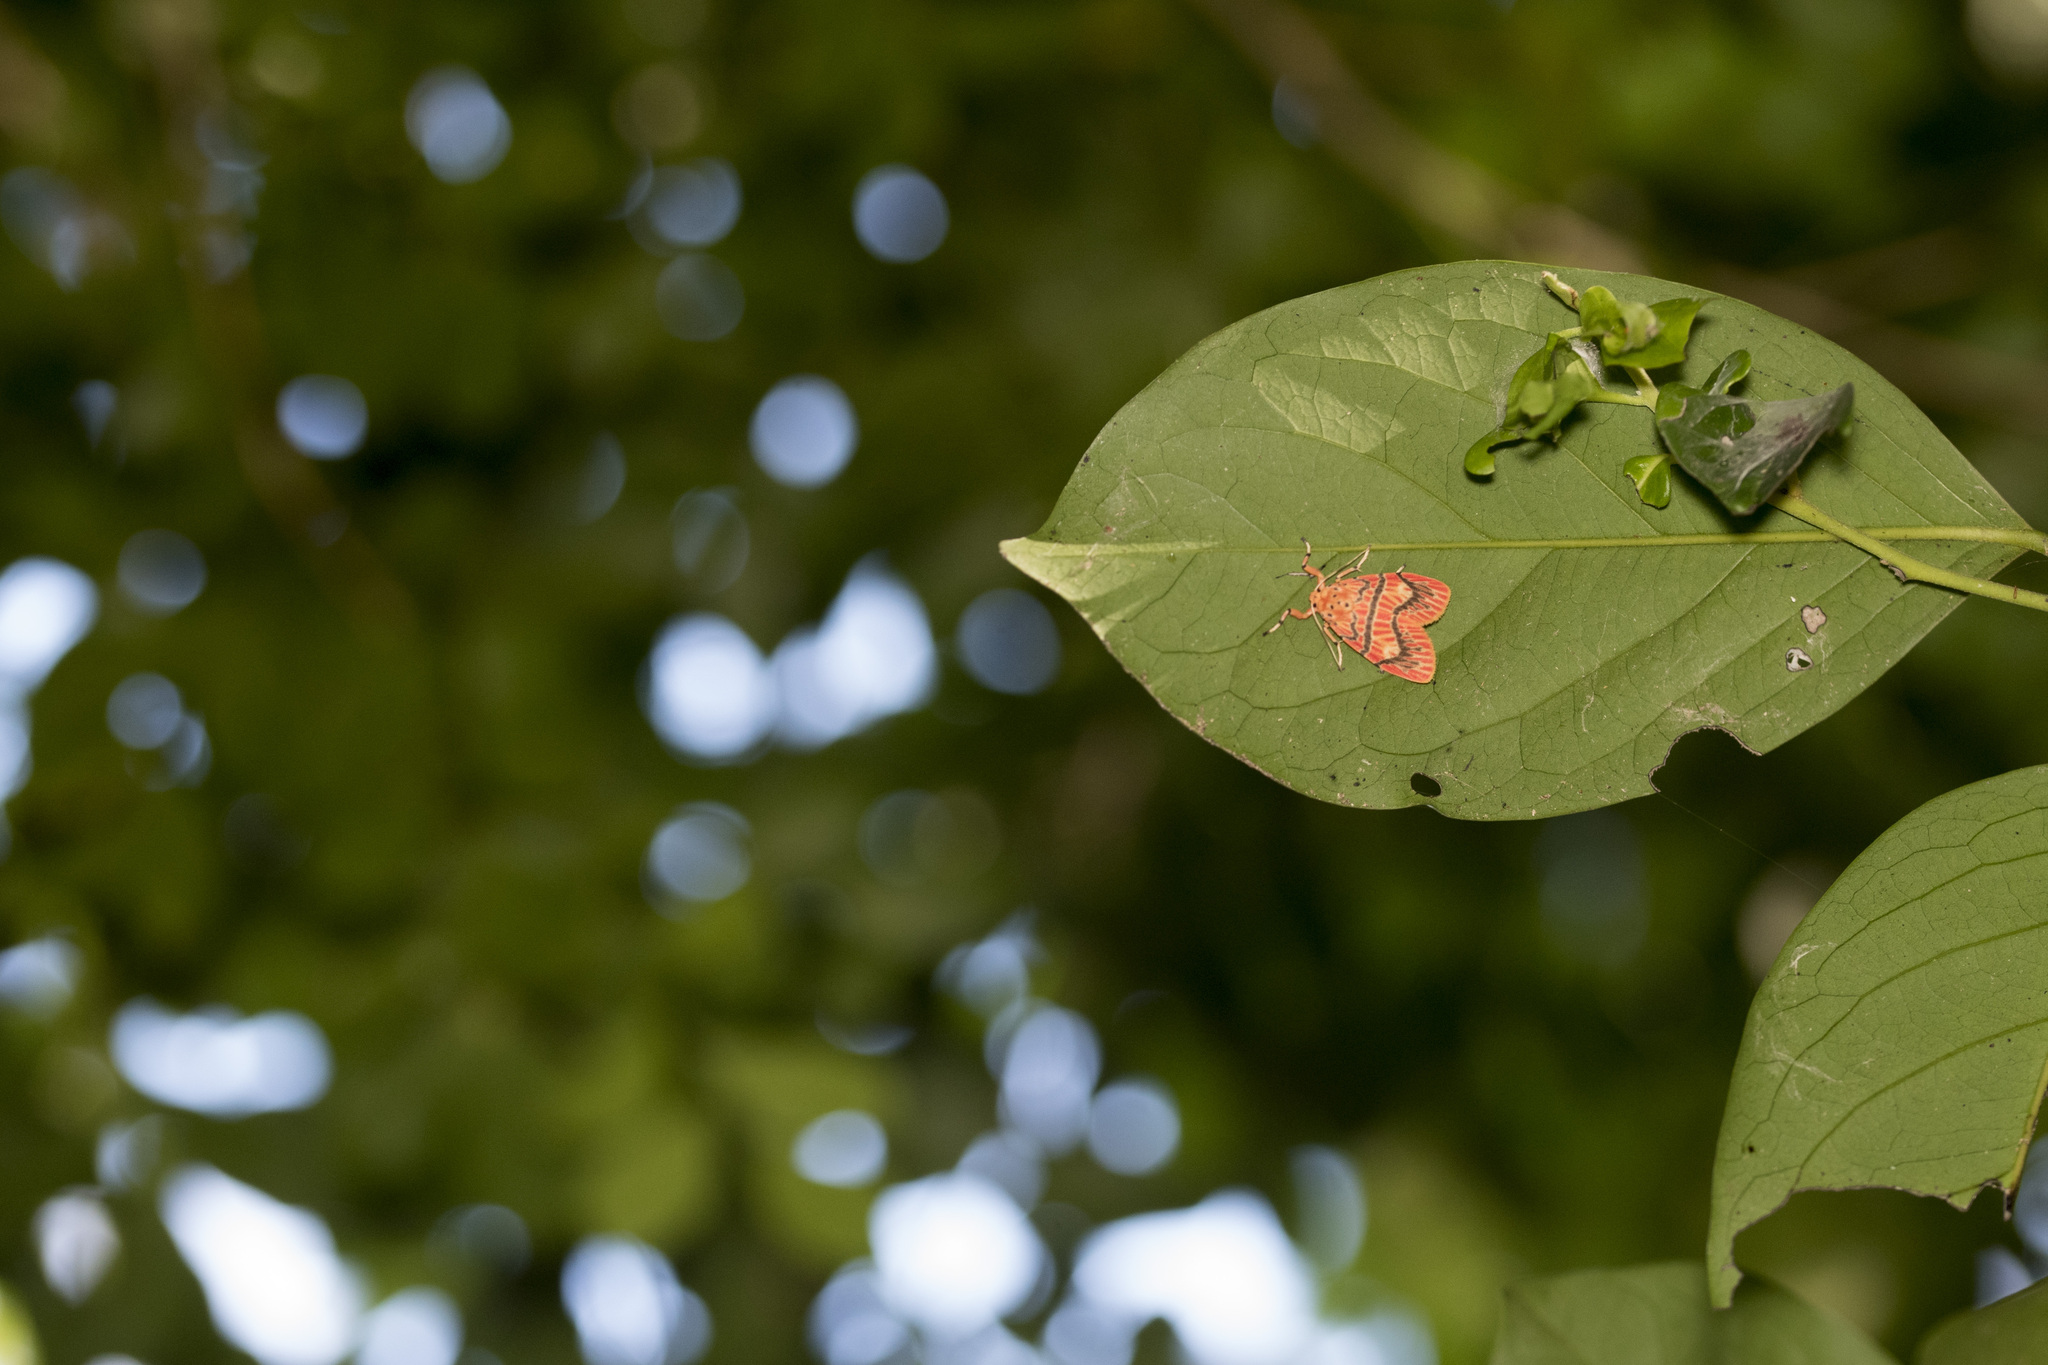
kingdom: Animalia
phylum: Arthropoda
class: Insecta
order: Lepidoptera
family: Erebidae
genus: Barsine
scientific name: Barsine sauteri
